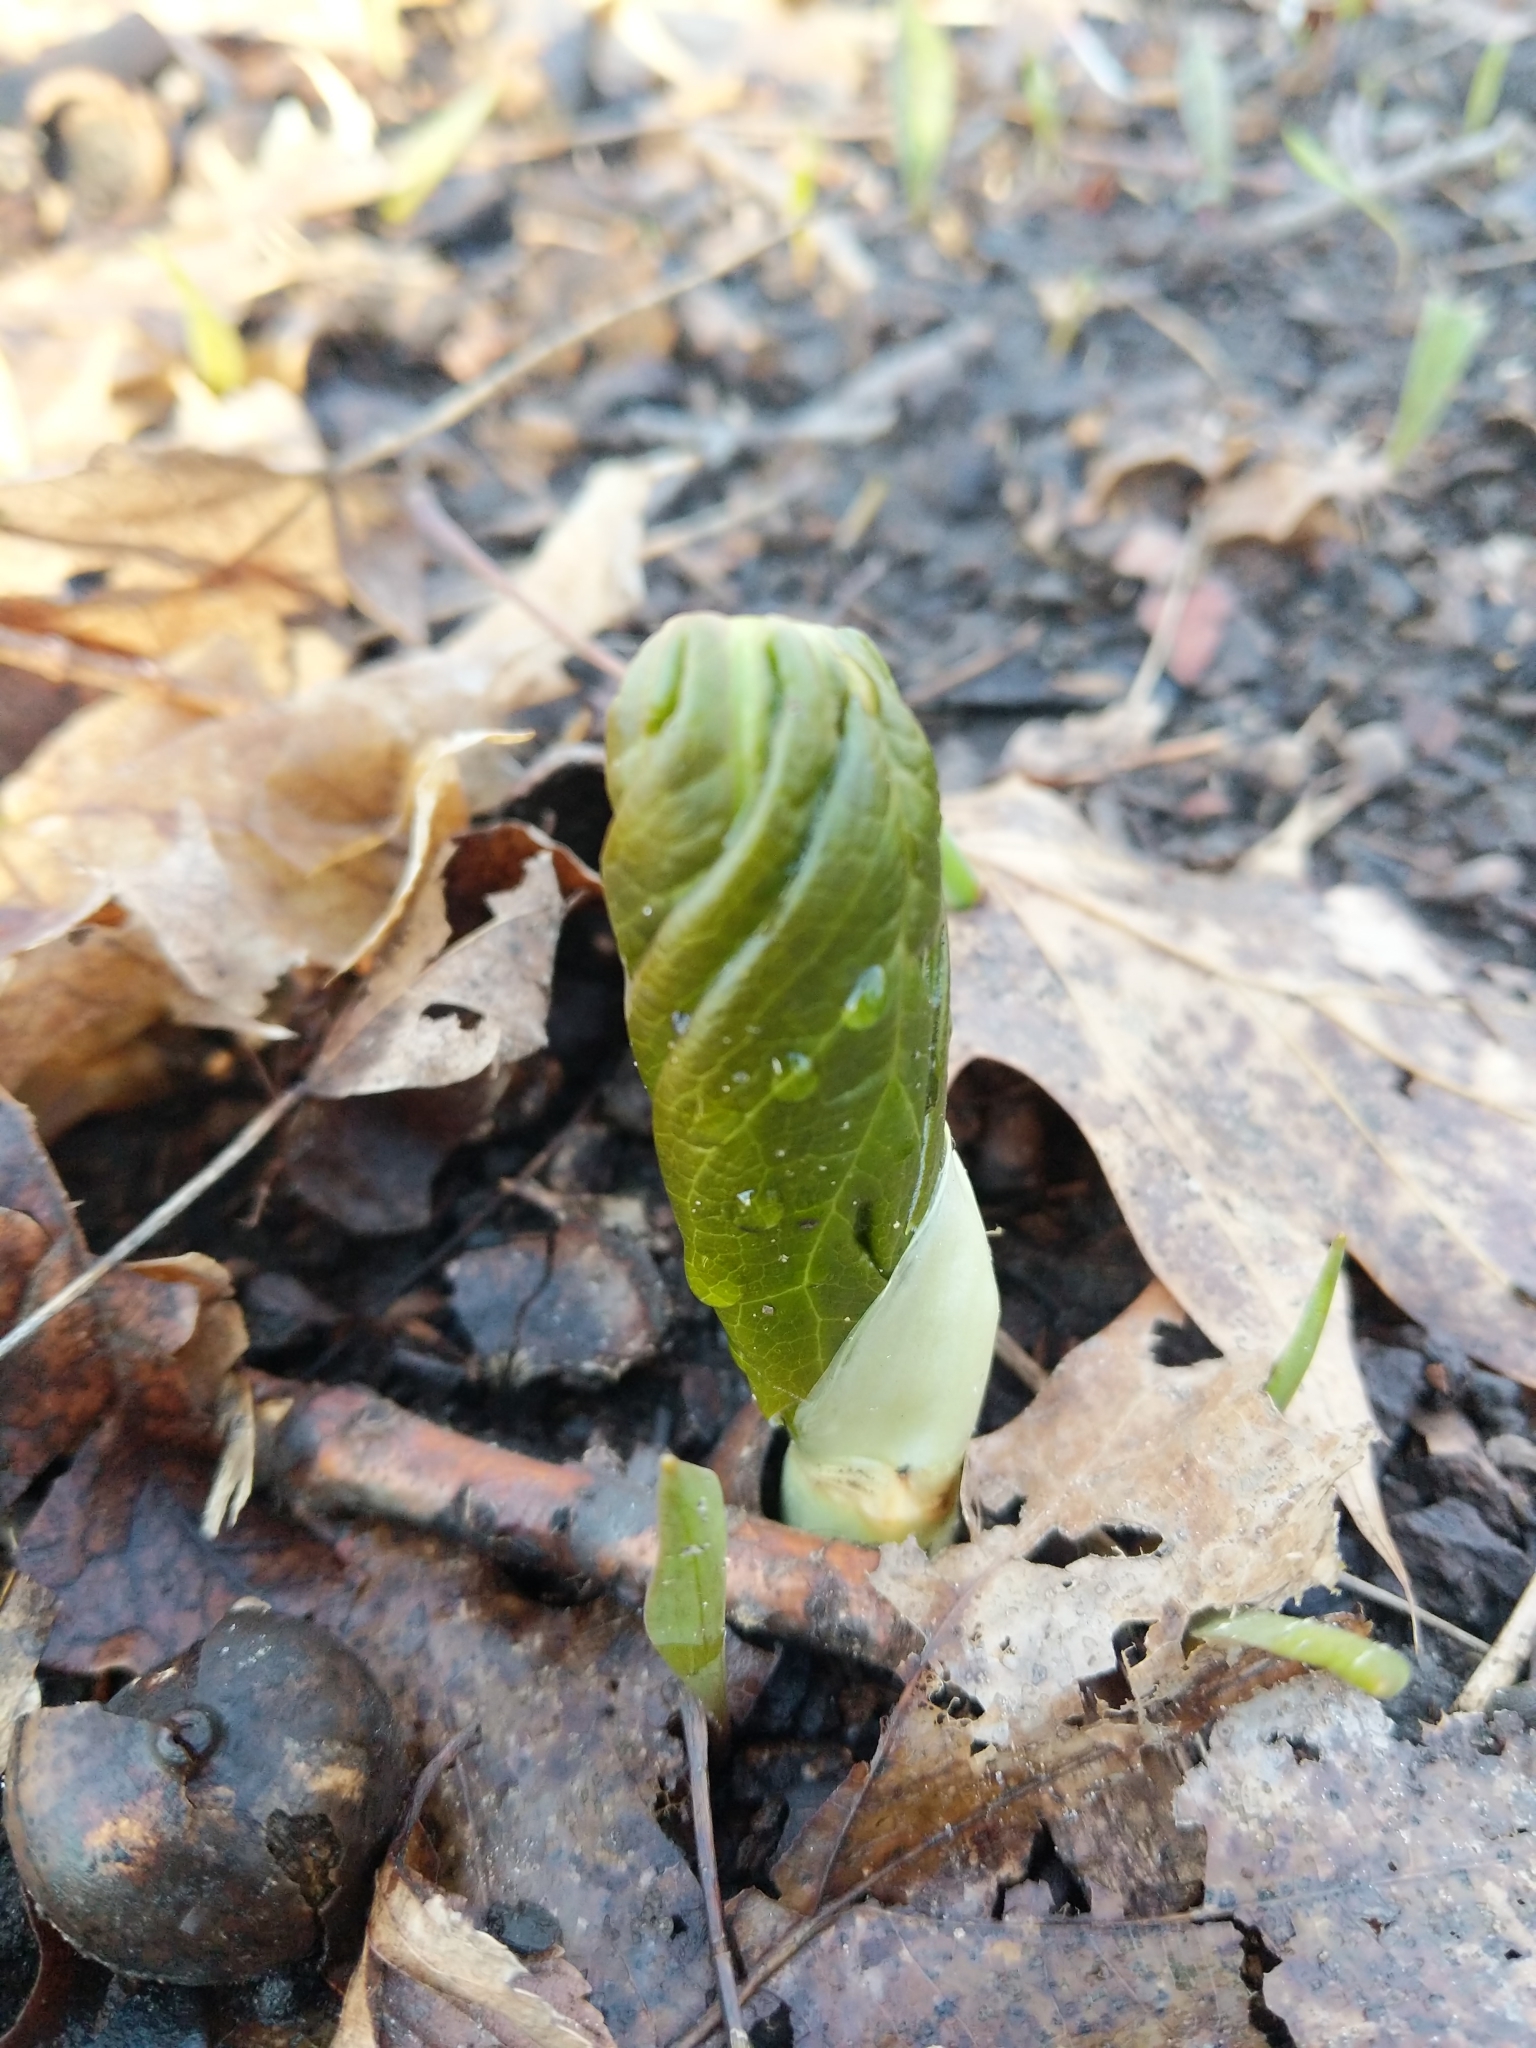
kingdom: Plantae
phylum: Tracheophyta
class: Magnoliopsida
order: Ranunculales
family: Berberidaceae
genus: Podophyllum
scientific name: Podophyllum peltatum
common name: Wild mandrake
